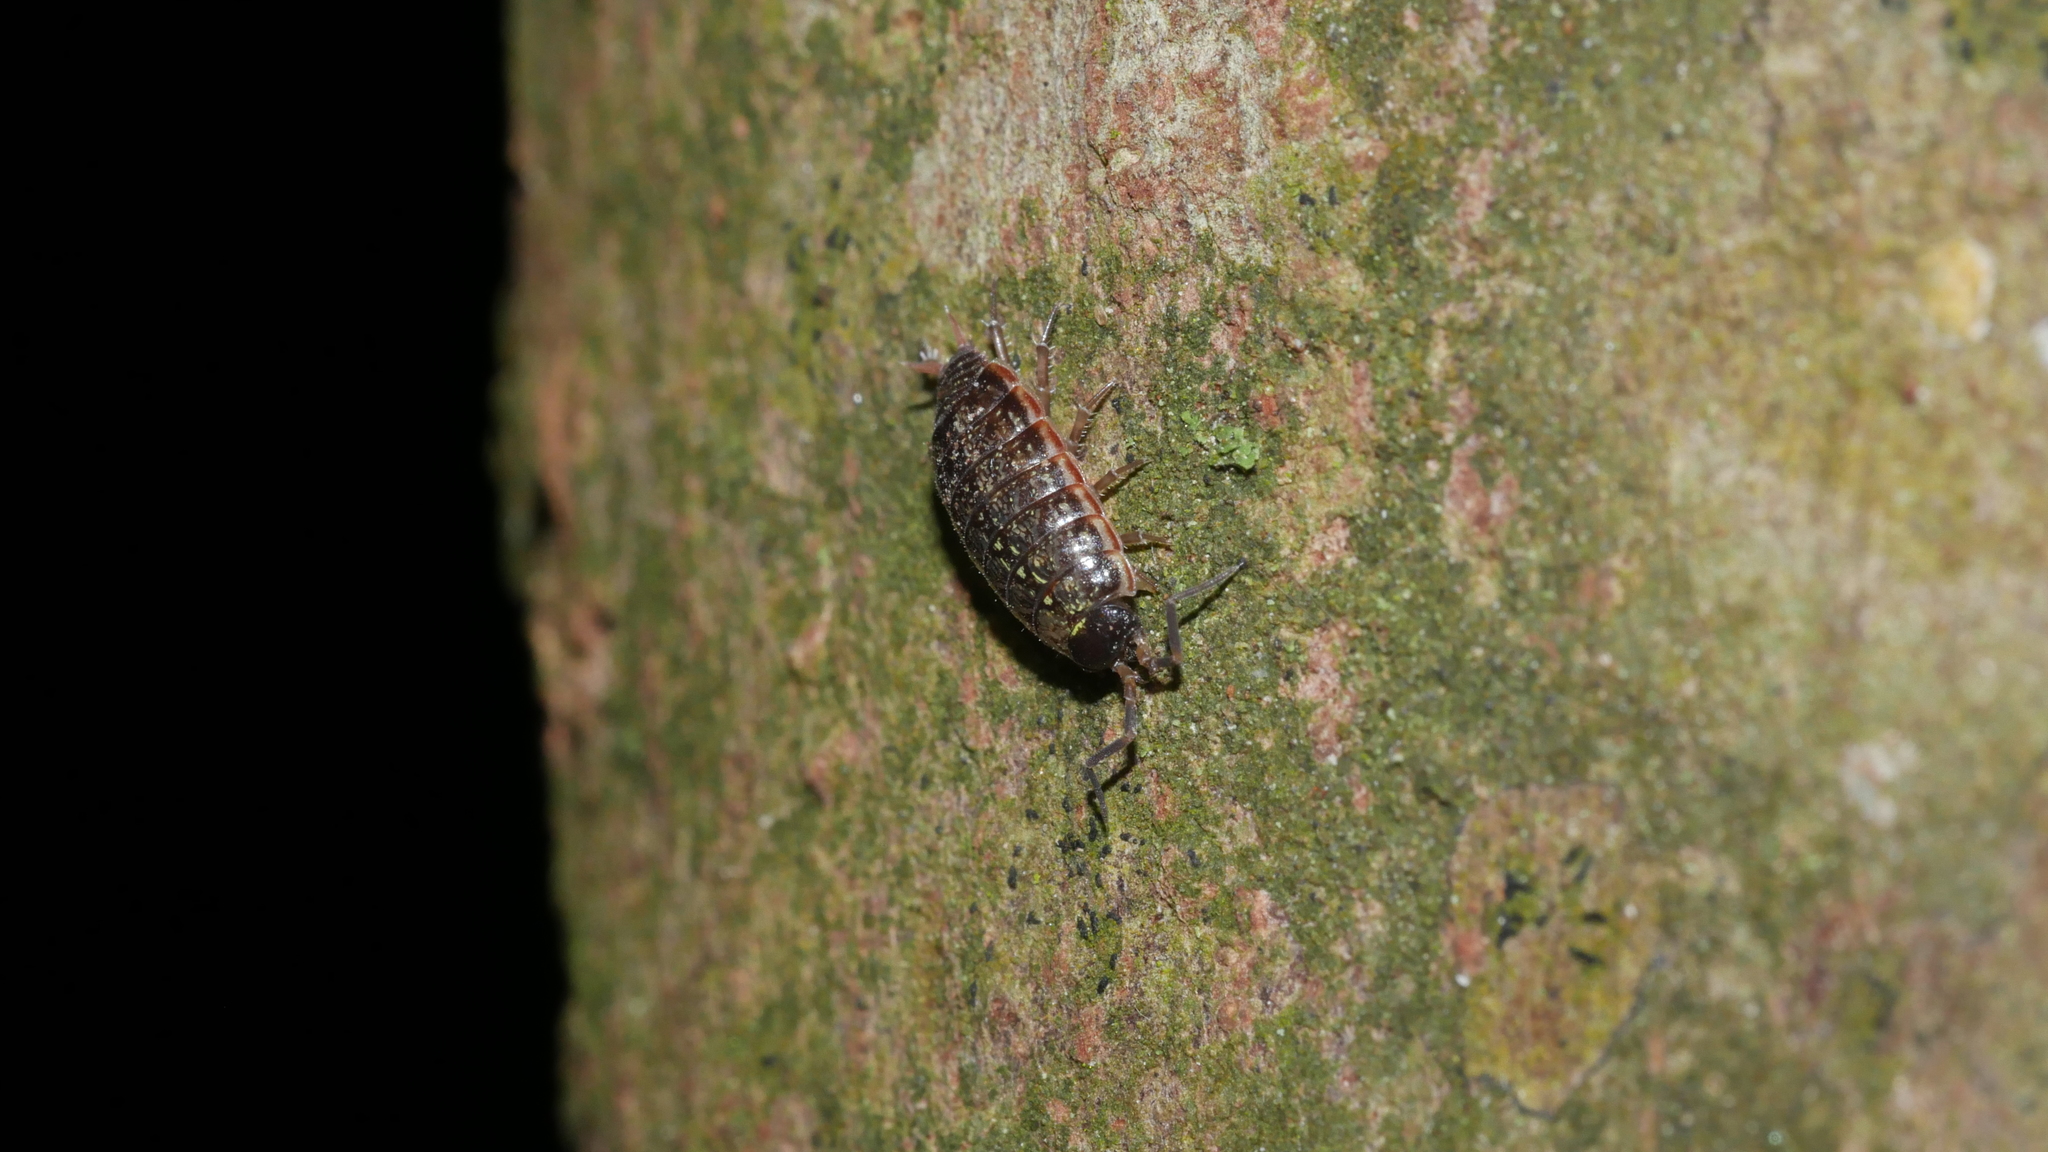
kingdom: Animalia
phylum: Arthropoda
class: Malacostraca
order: Isopoda
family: Philosciidae
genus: Philoscia
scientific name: Philoscia muscorum
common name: Common striped woodlouse
